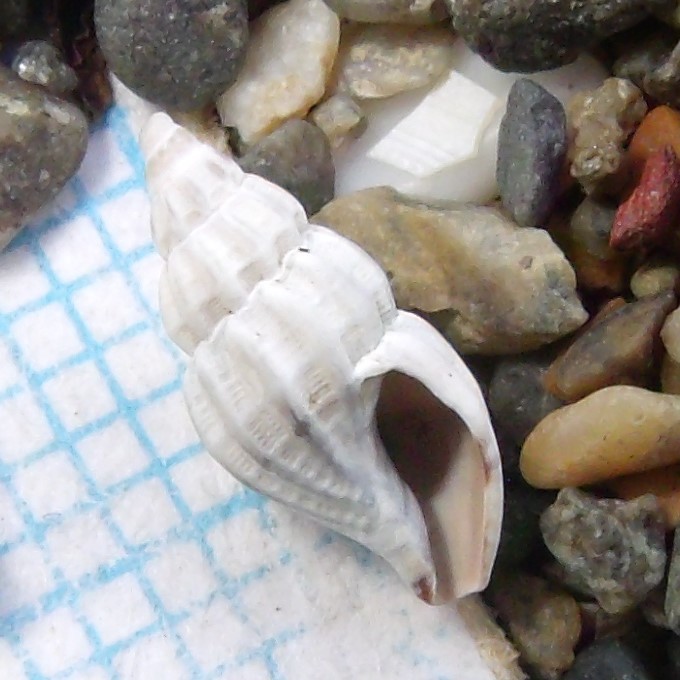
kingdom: Animalia
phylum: Mollusca
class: Gastropoda
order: Neogastropoda
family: Mangeliidae
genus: Neoguraleus
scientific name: Neoguraleus murdochi
